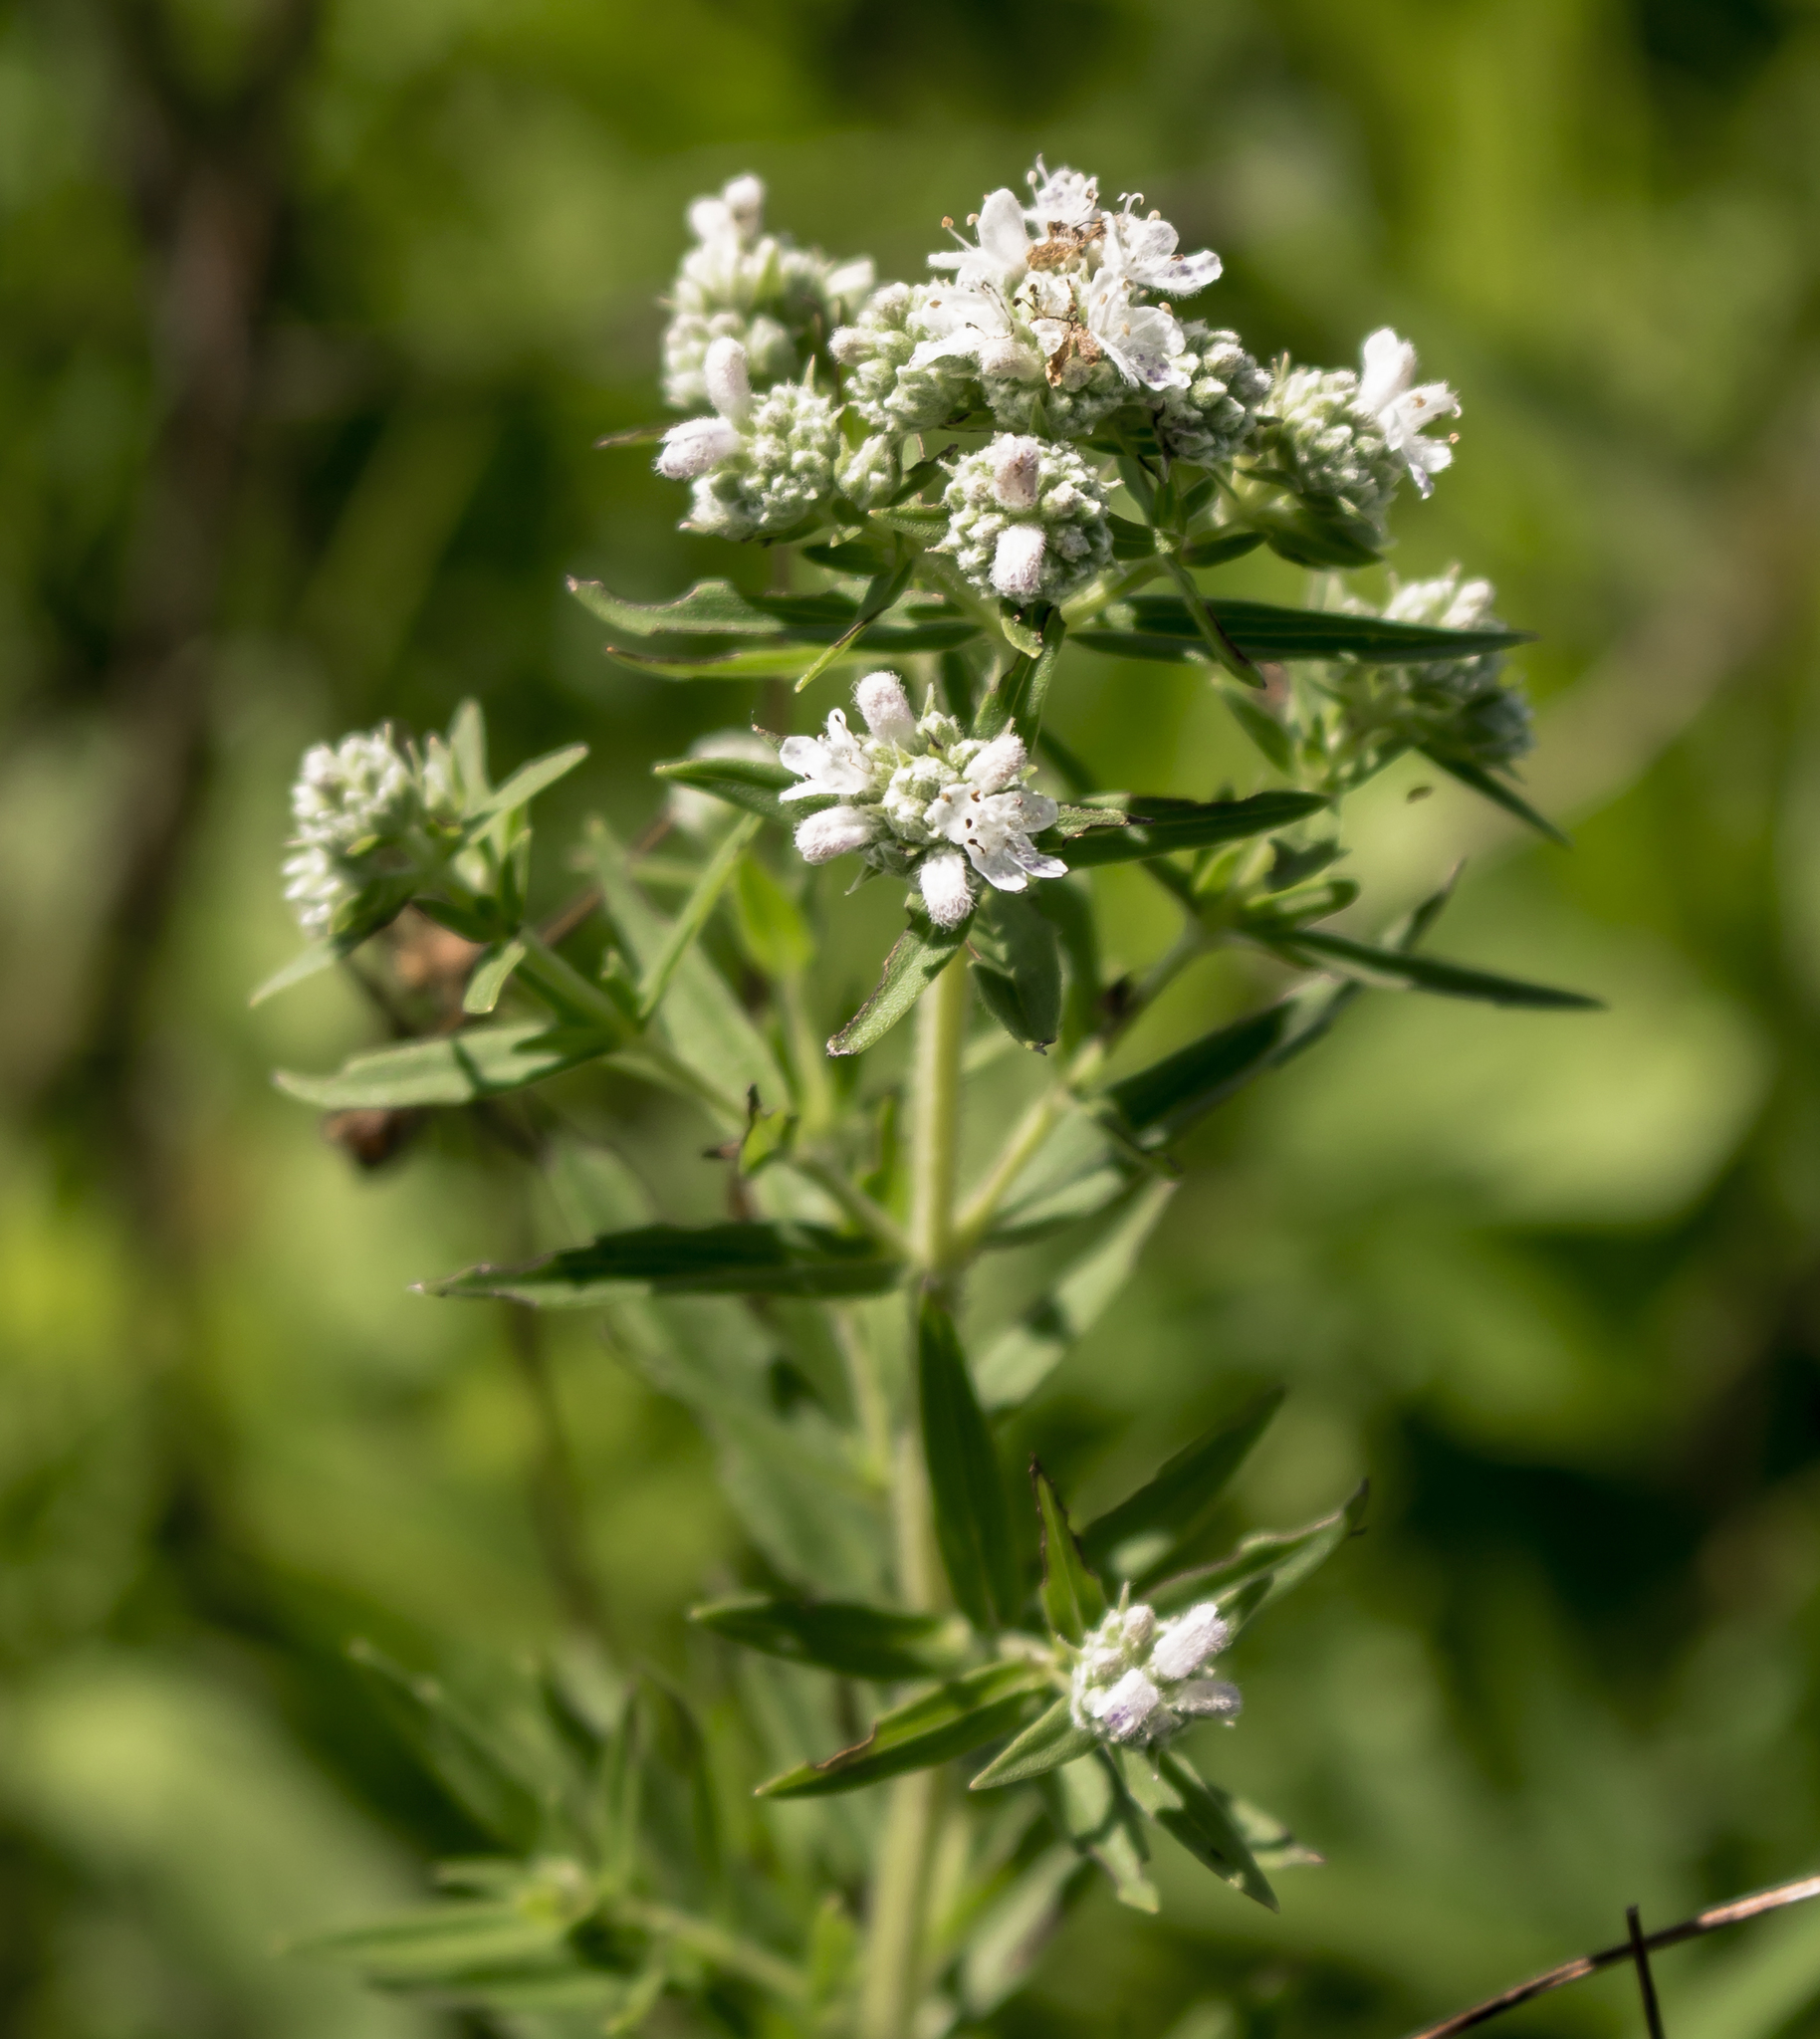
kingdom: Plantae
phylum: Tracheophyta
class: Magnoliopsida
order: Lamiales
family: Lamiaceae
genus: Pycnanthemum
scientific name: Pycnanthemum virginianum
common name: Virginia mountain-mint
